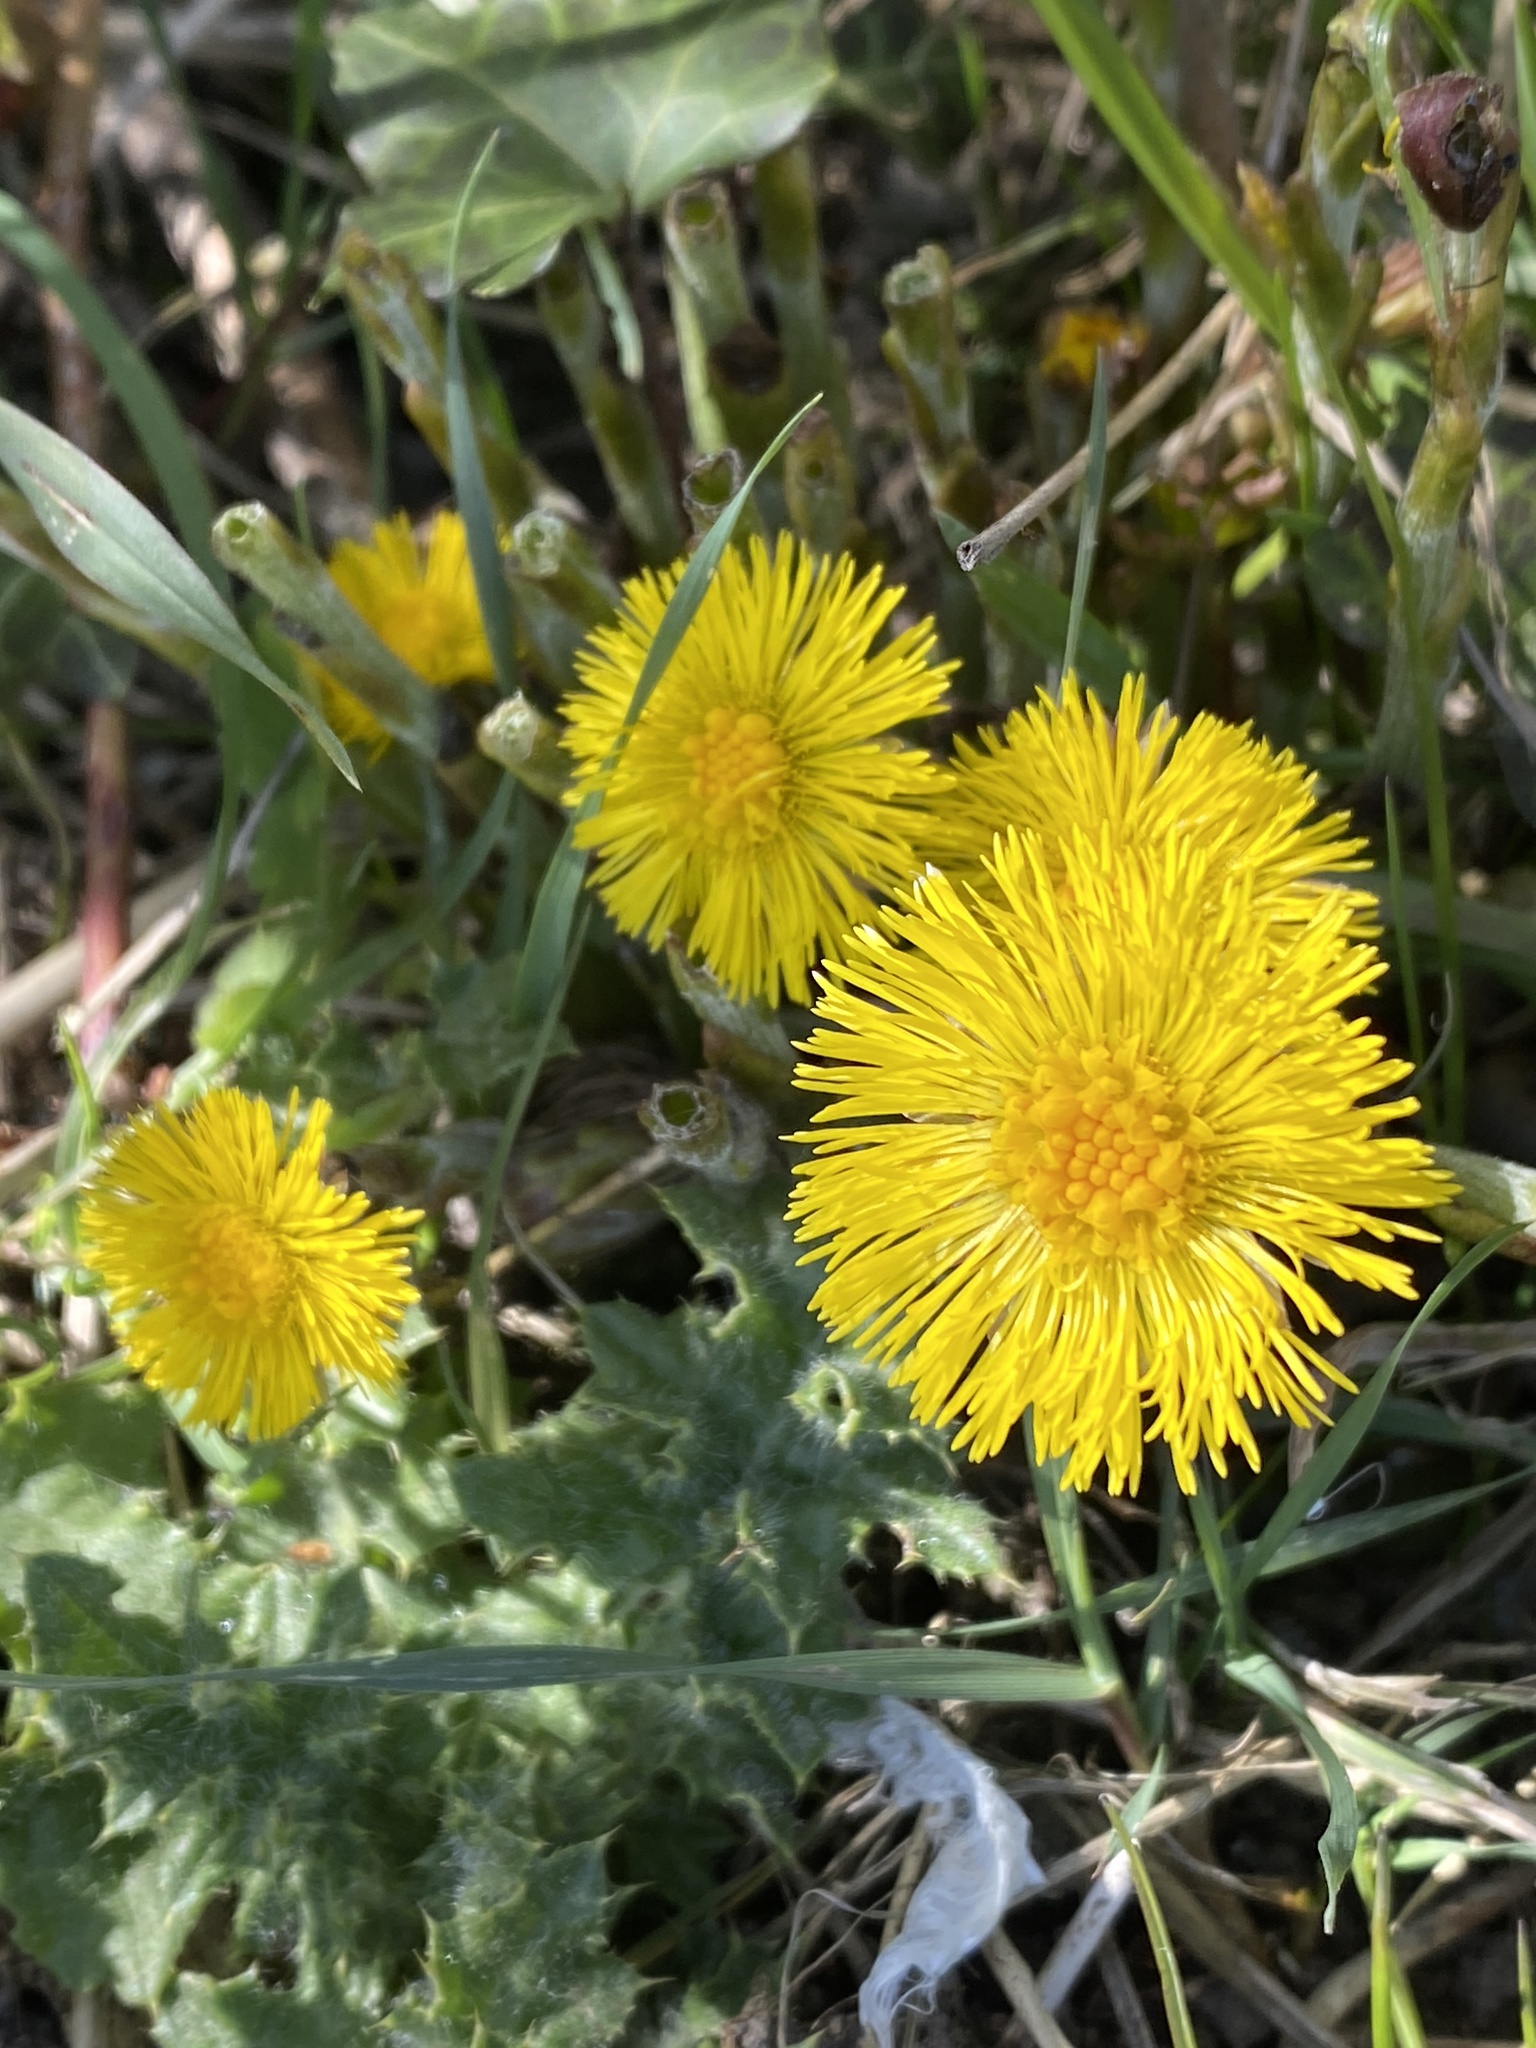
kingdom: Plantae
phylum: Tracheophyta
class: Magnoliopsida
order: Asterales
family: Asteraceae
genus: Tussilago
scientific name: Tussilago farfara
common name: Coltsfoot
